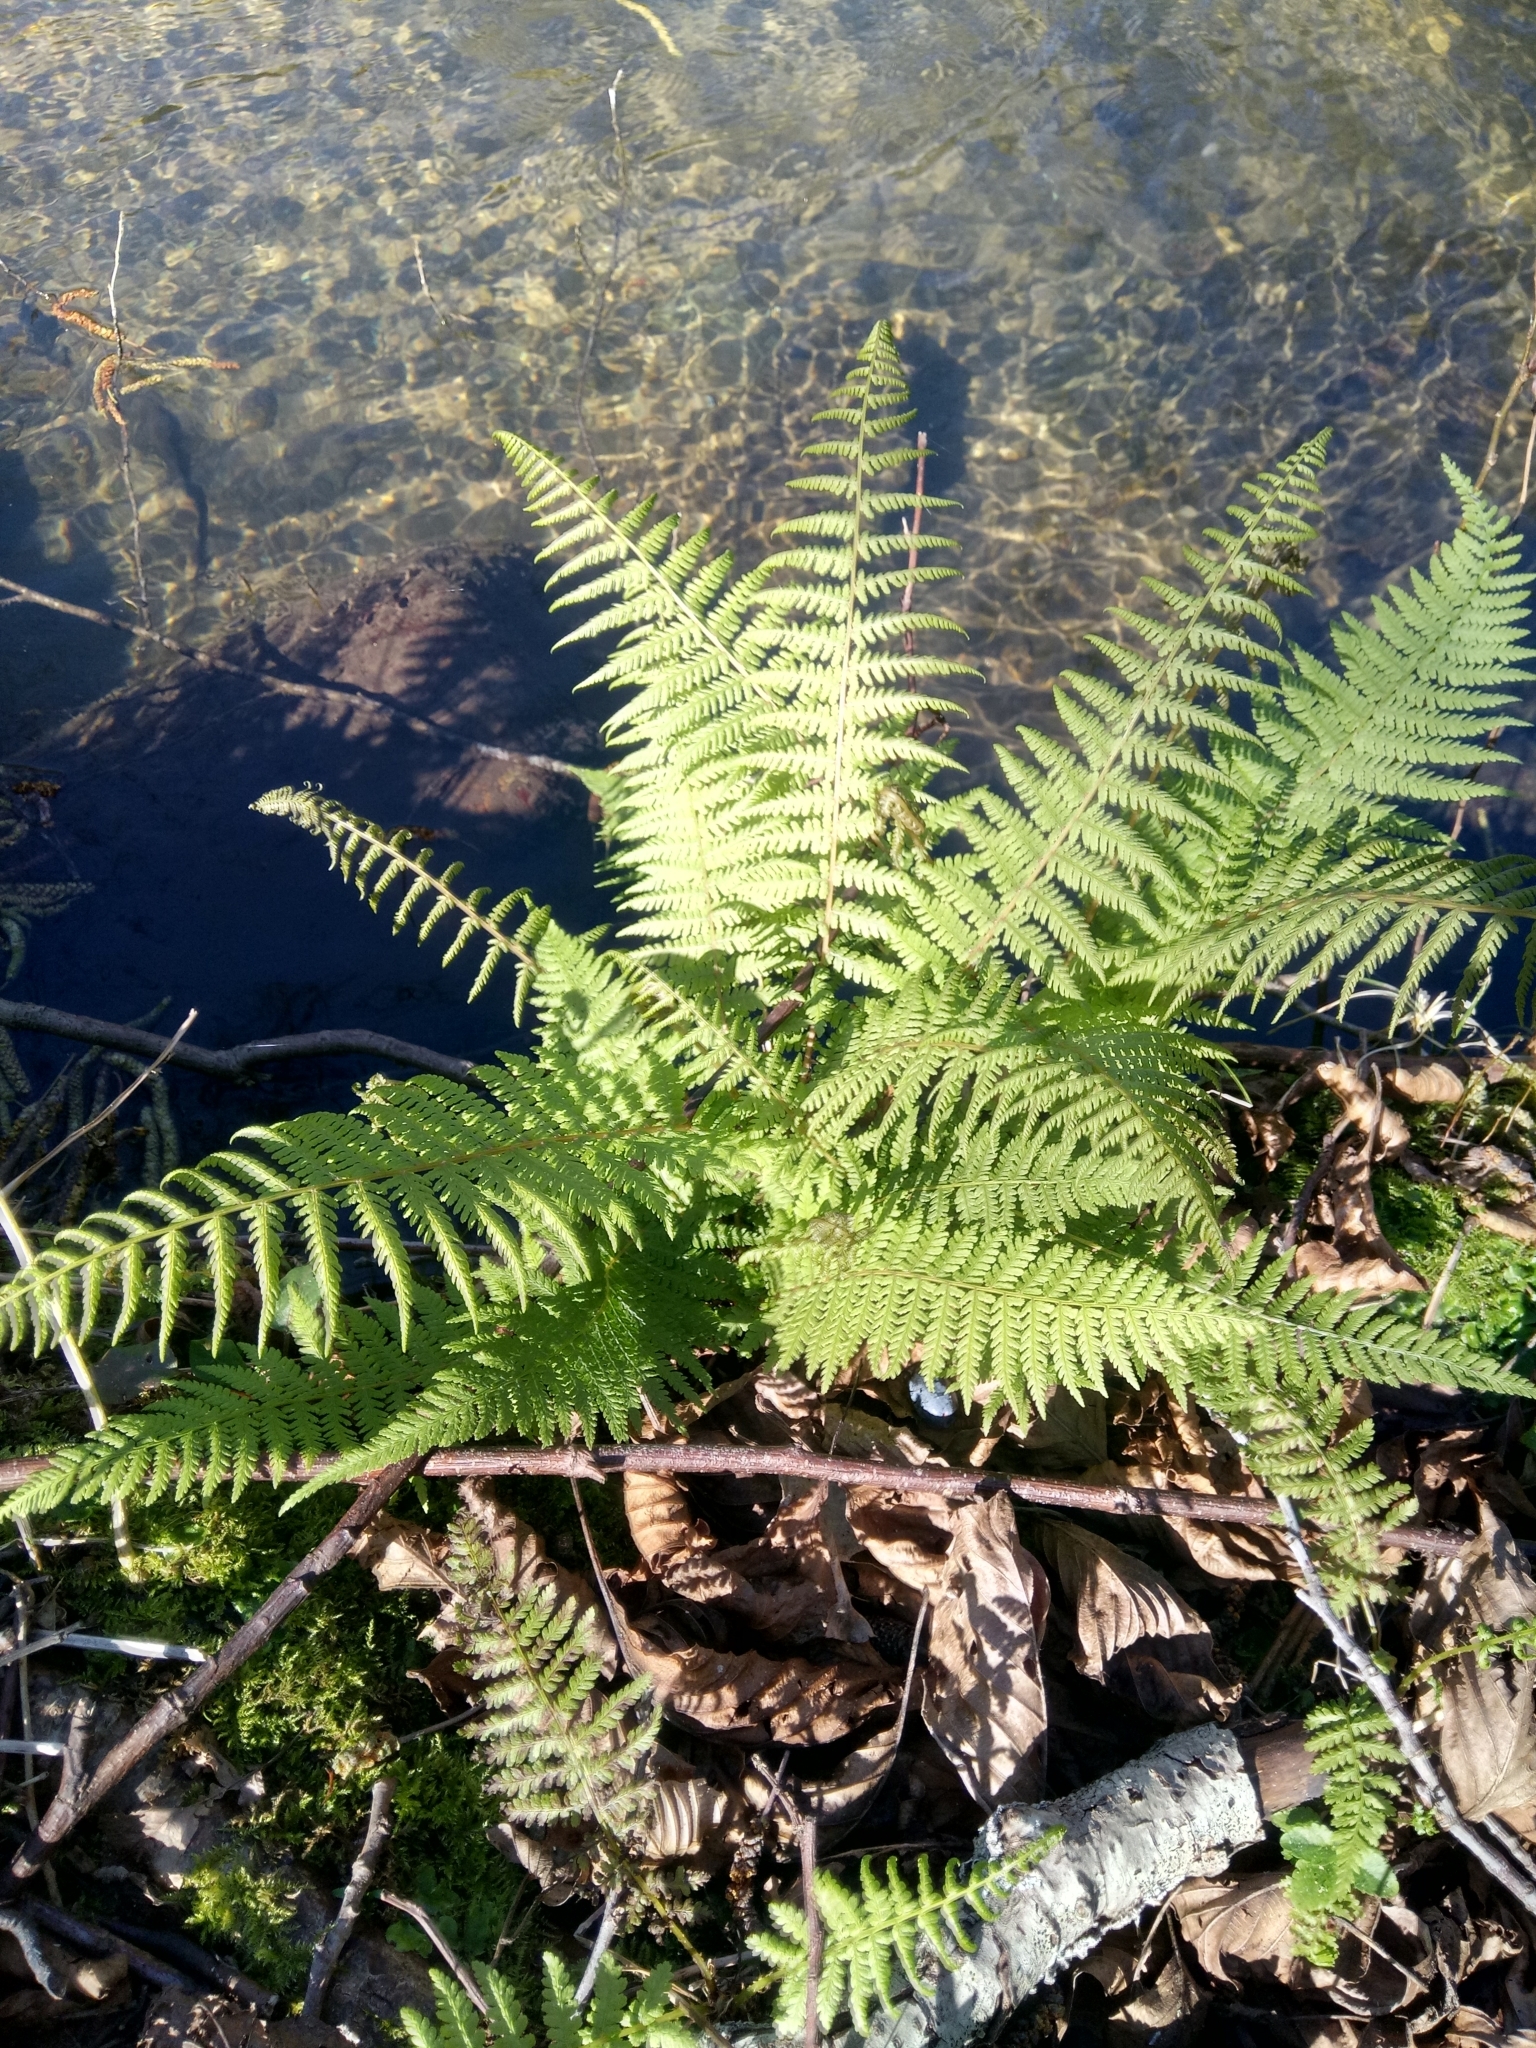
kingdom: Plantae
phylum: Tracheophyta
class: Polypodiopsida
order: Polypodiales
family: Athyriaceae
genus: Athyrium
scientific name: Athyrium filix-femina
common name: Lady fern
